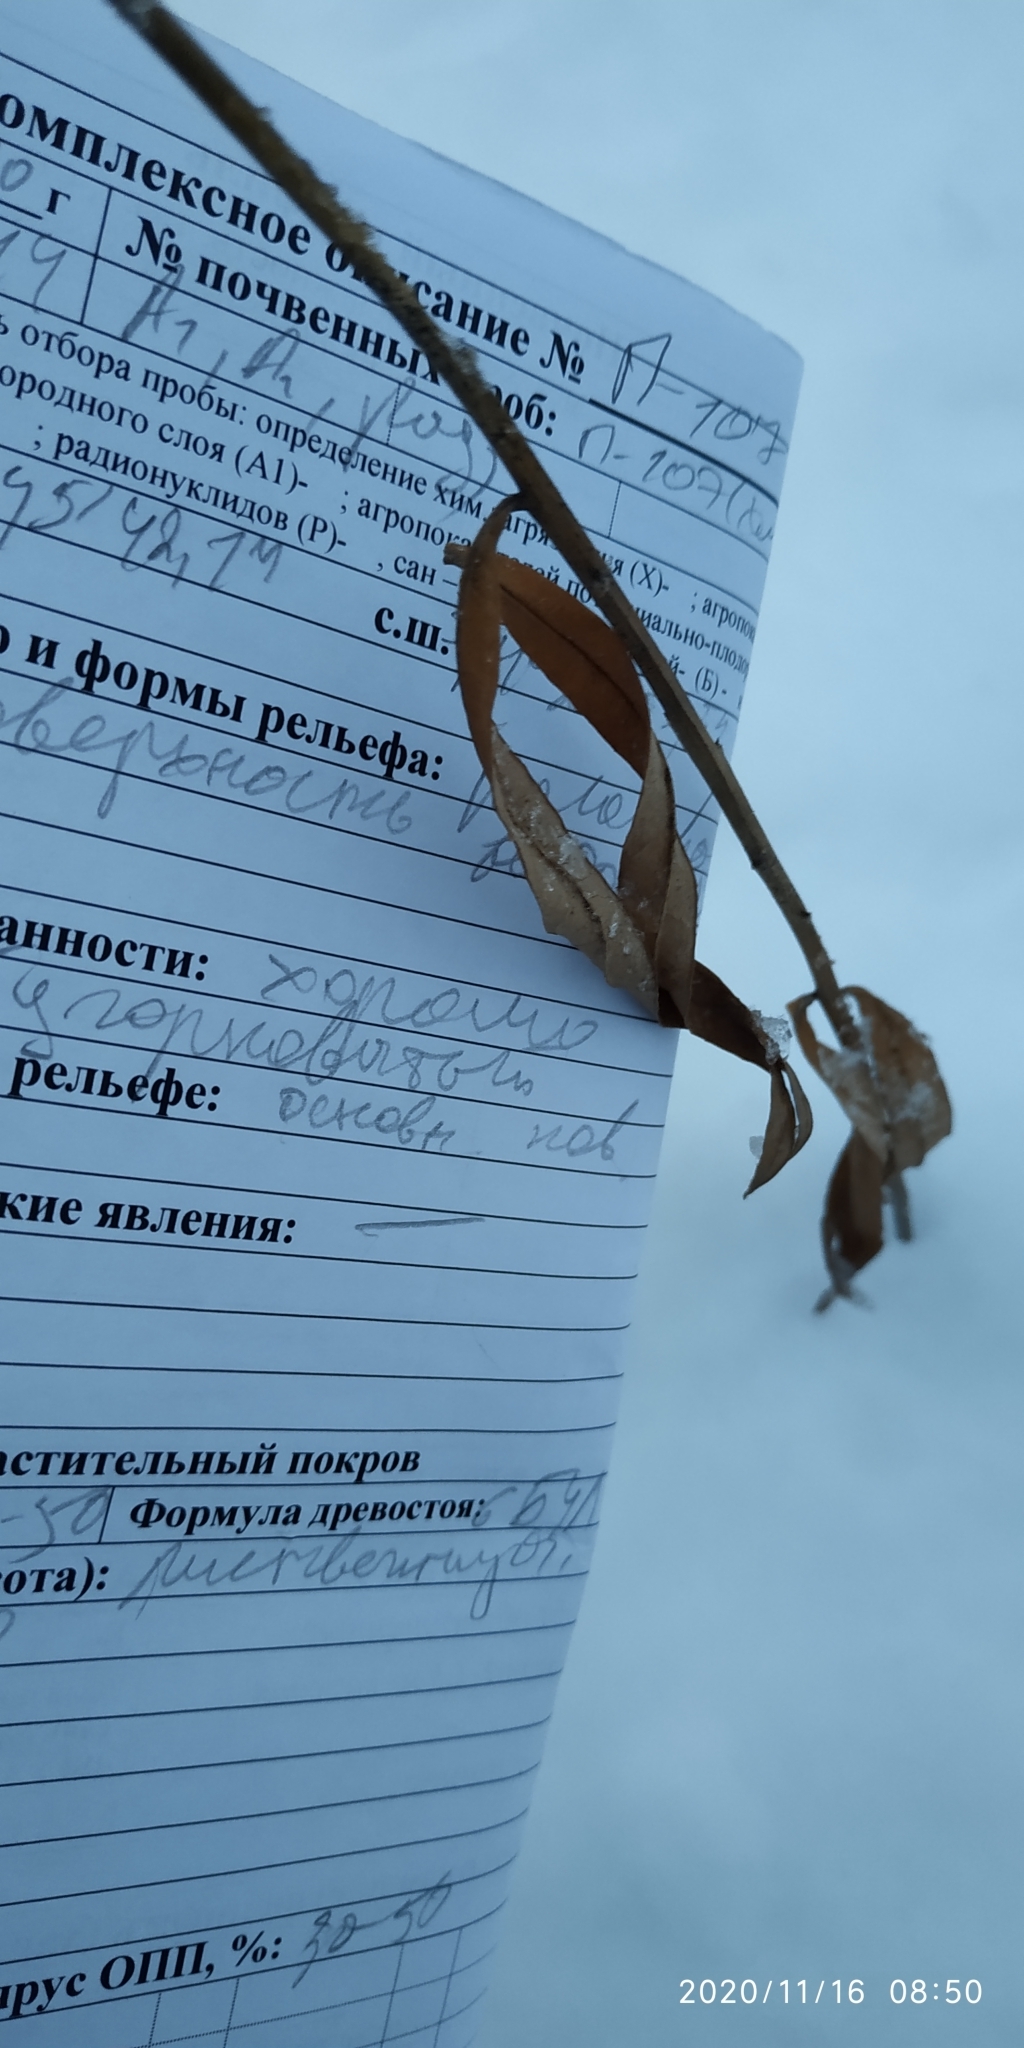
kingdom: Plantae
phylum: Tracheophyta
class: Magnoliopsida
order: Myrtales
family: Onagraceae
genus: Chamaenerion
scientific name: Chamaenerion angustifolium
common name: Fireweed
